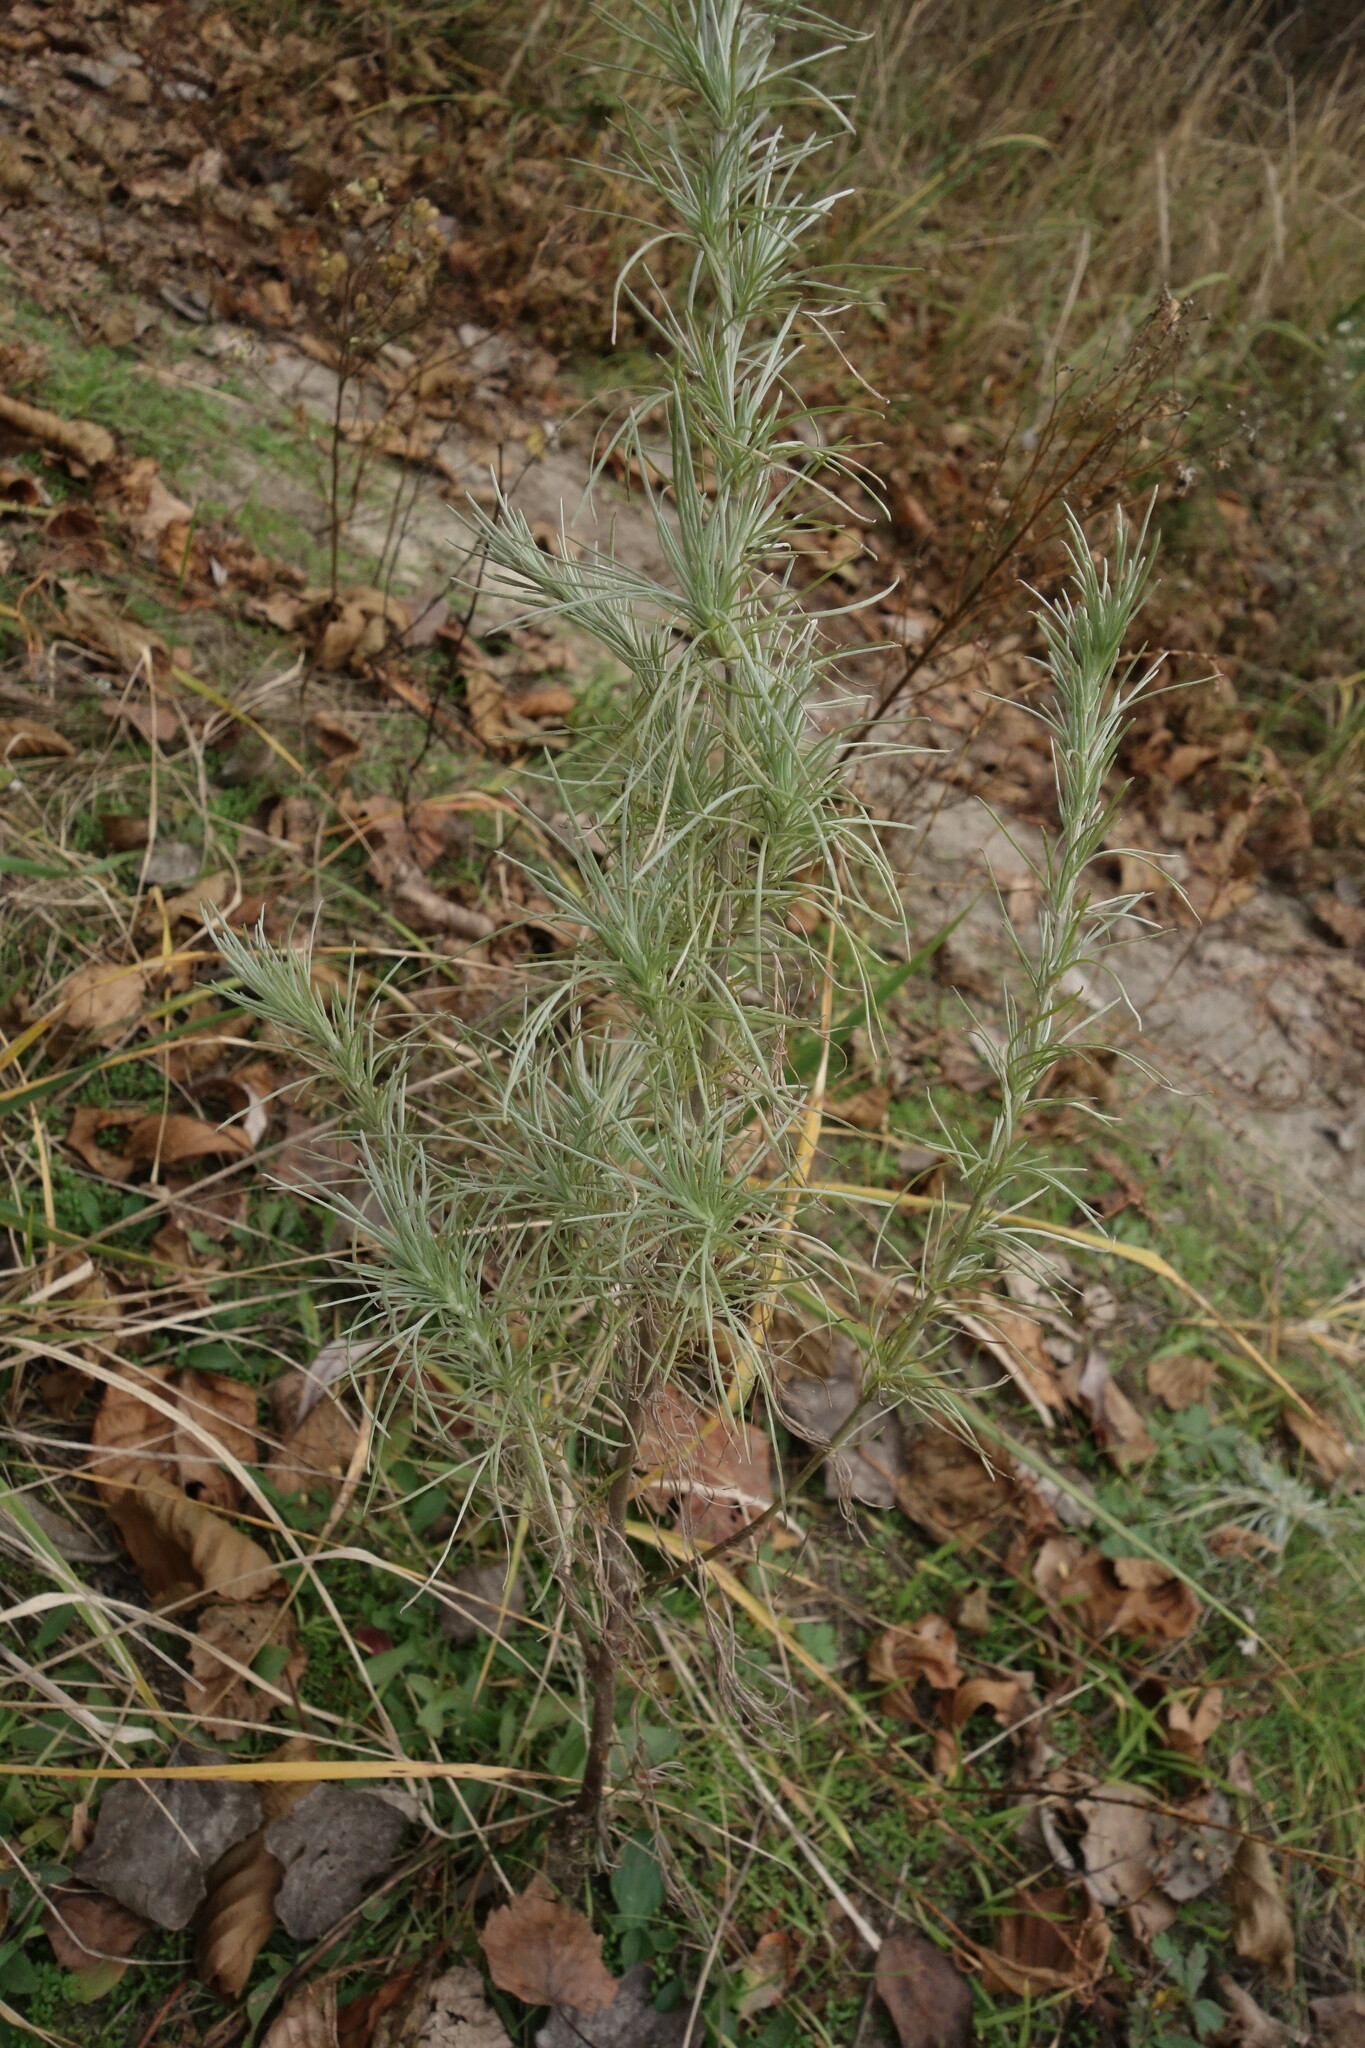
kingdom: Plantae
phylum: Tracheophyta
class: Magnoliopsida
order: Asterales
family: Asteraceae
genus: Artemisia
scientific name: Artemisia campestris
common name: Field wormwood
